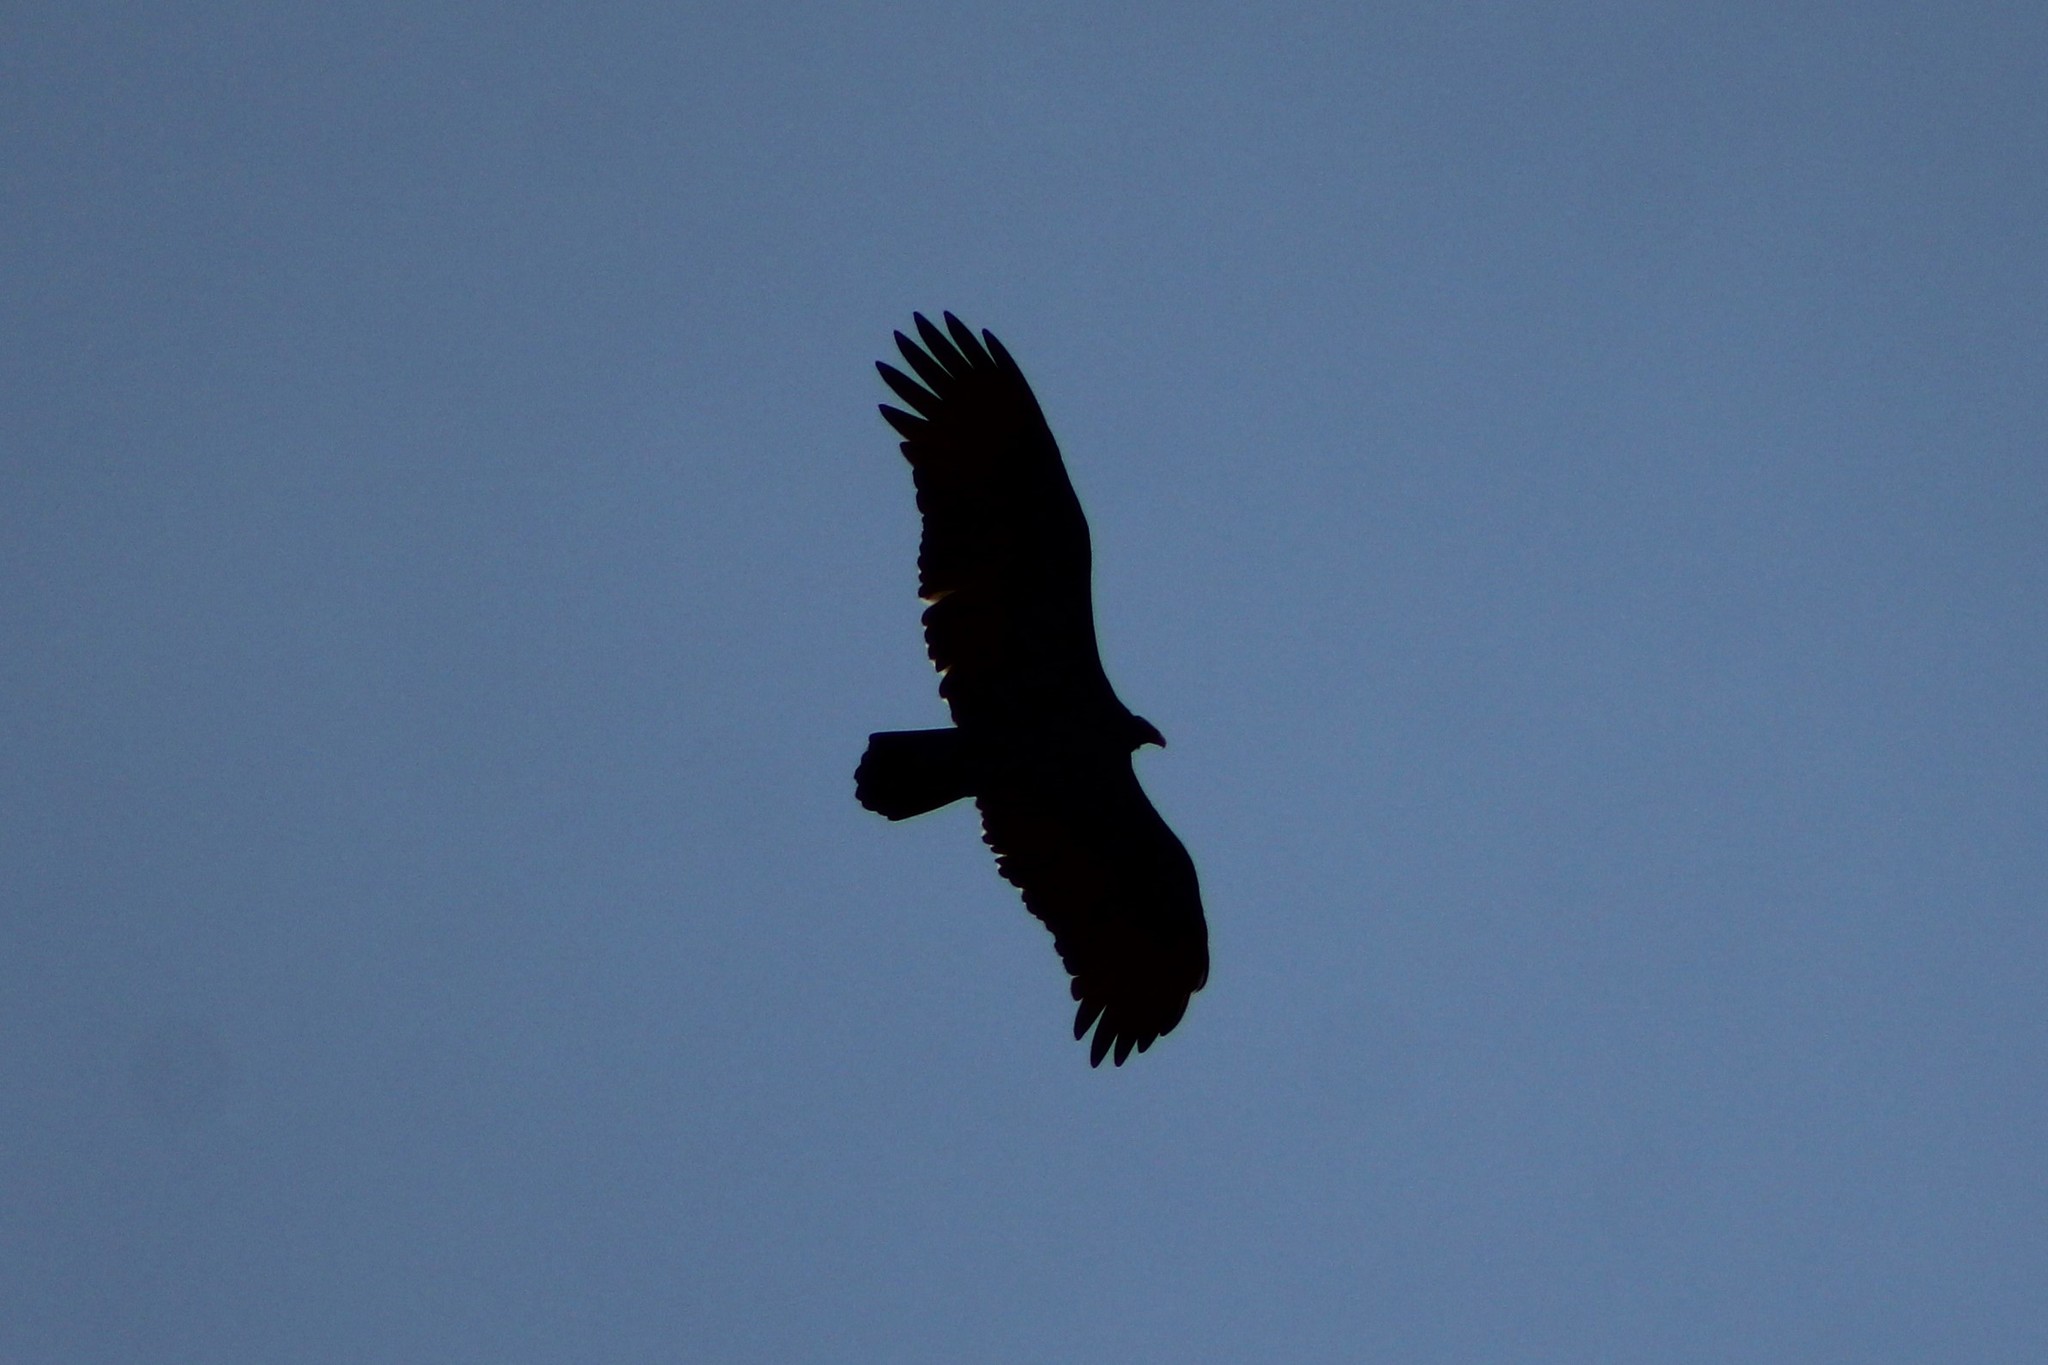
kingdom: Animalia
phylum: Chordata
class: Aves
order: Accipitriformes
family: Cathartidae
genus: Cathartes
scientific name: Cathartes aura
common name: Turkey vulture
